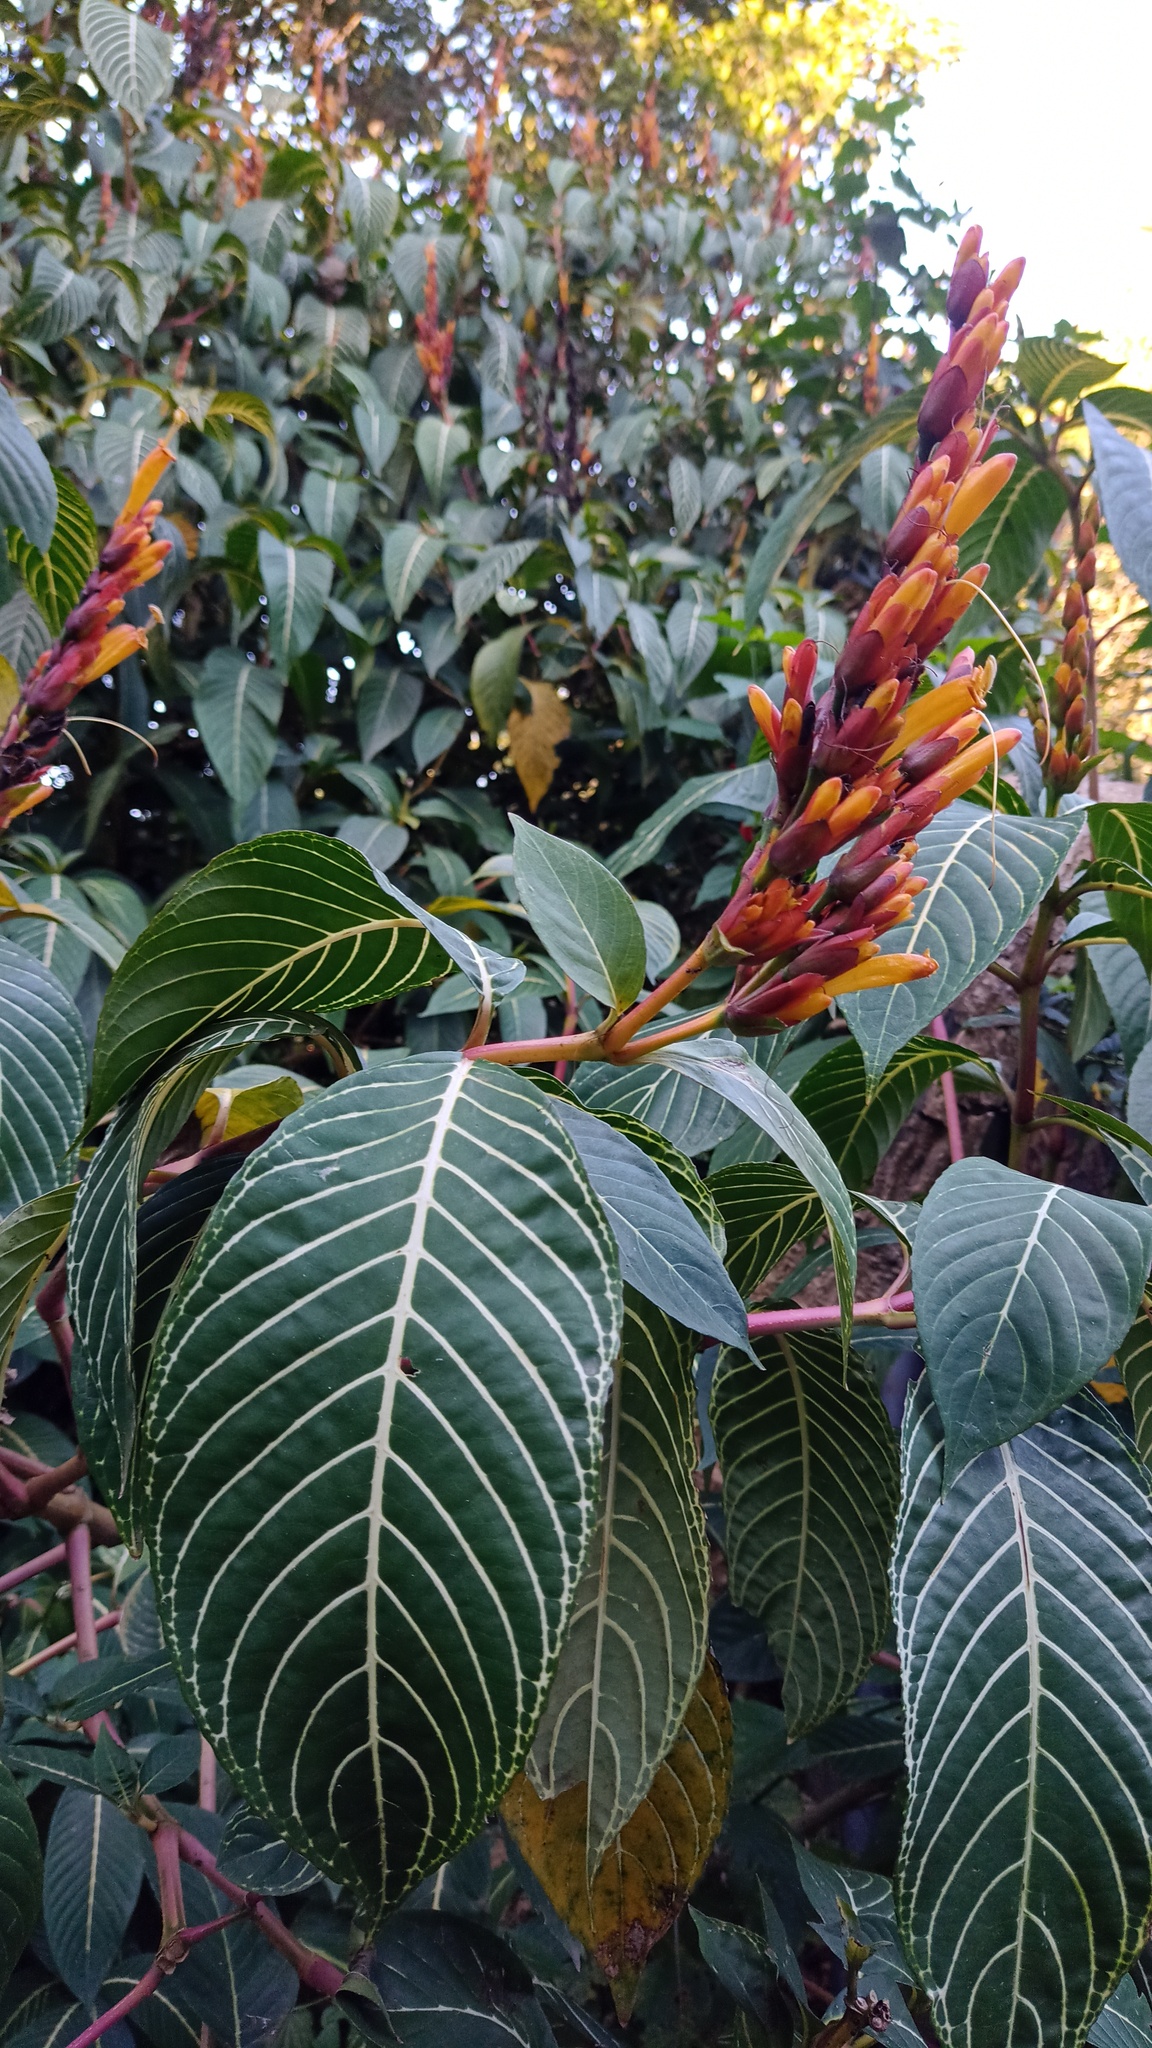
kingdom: Plantae
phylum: Tracheophyta
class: Magnoliopsida
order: Lamiales
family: Acanthaceae
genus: Sanchezia
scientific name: Sanchezia parvibracteata
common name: Sanchezia
